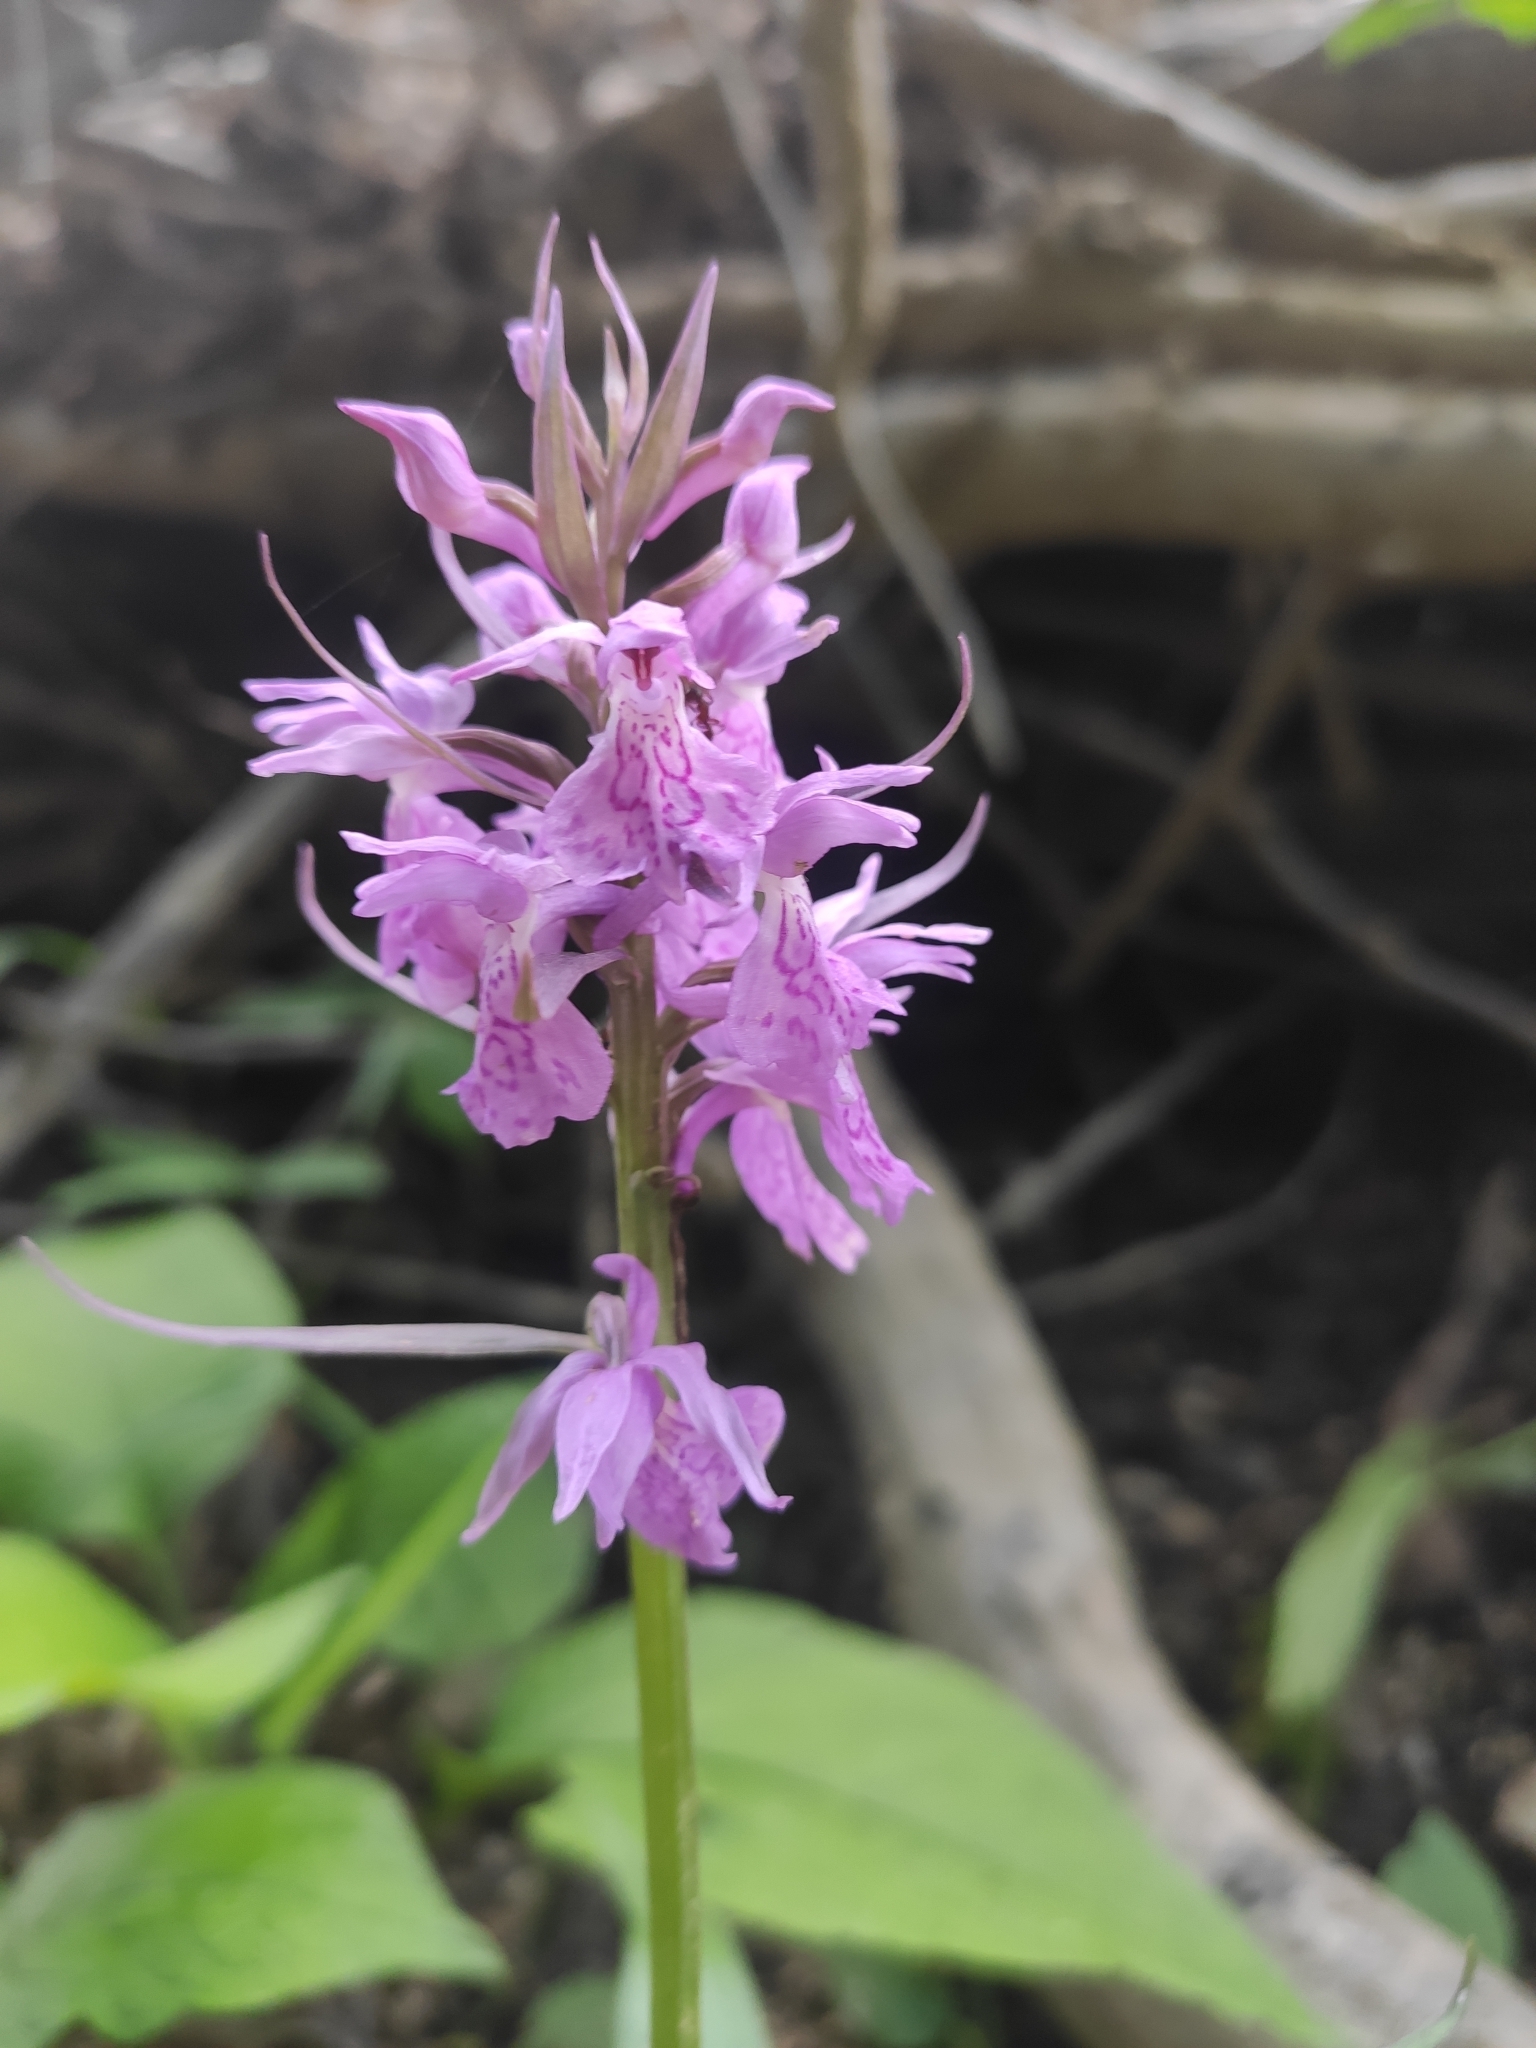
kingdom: Plantae
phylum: Tracheophyta
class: Liliopsida
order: Asparagales
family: Orchidaceae
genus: Dactylorhiza
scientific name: Dactylorhiza urvilleana
